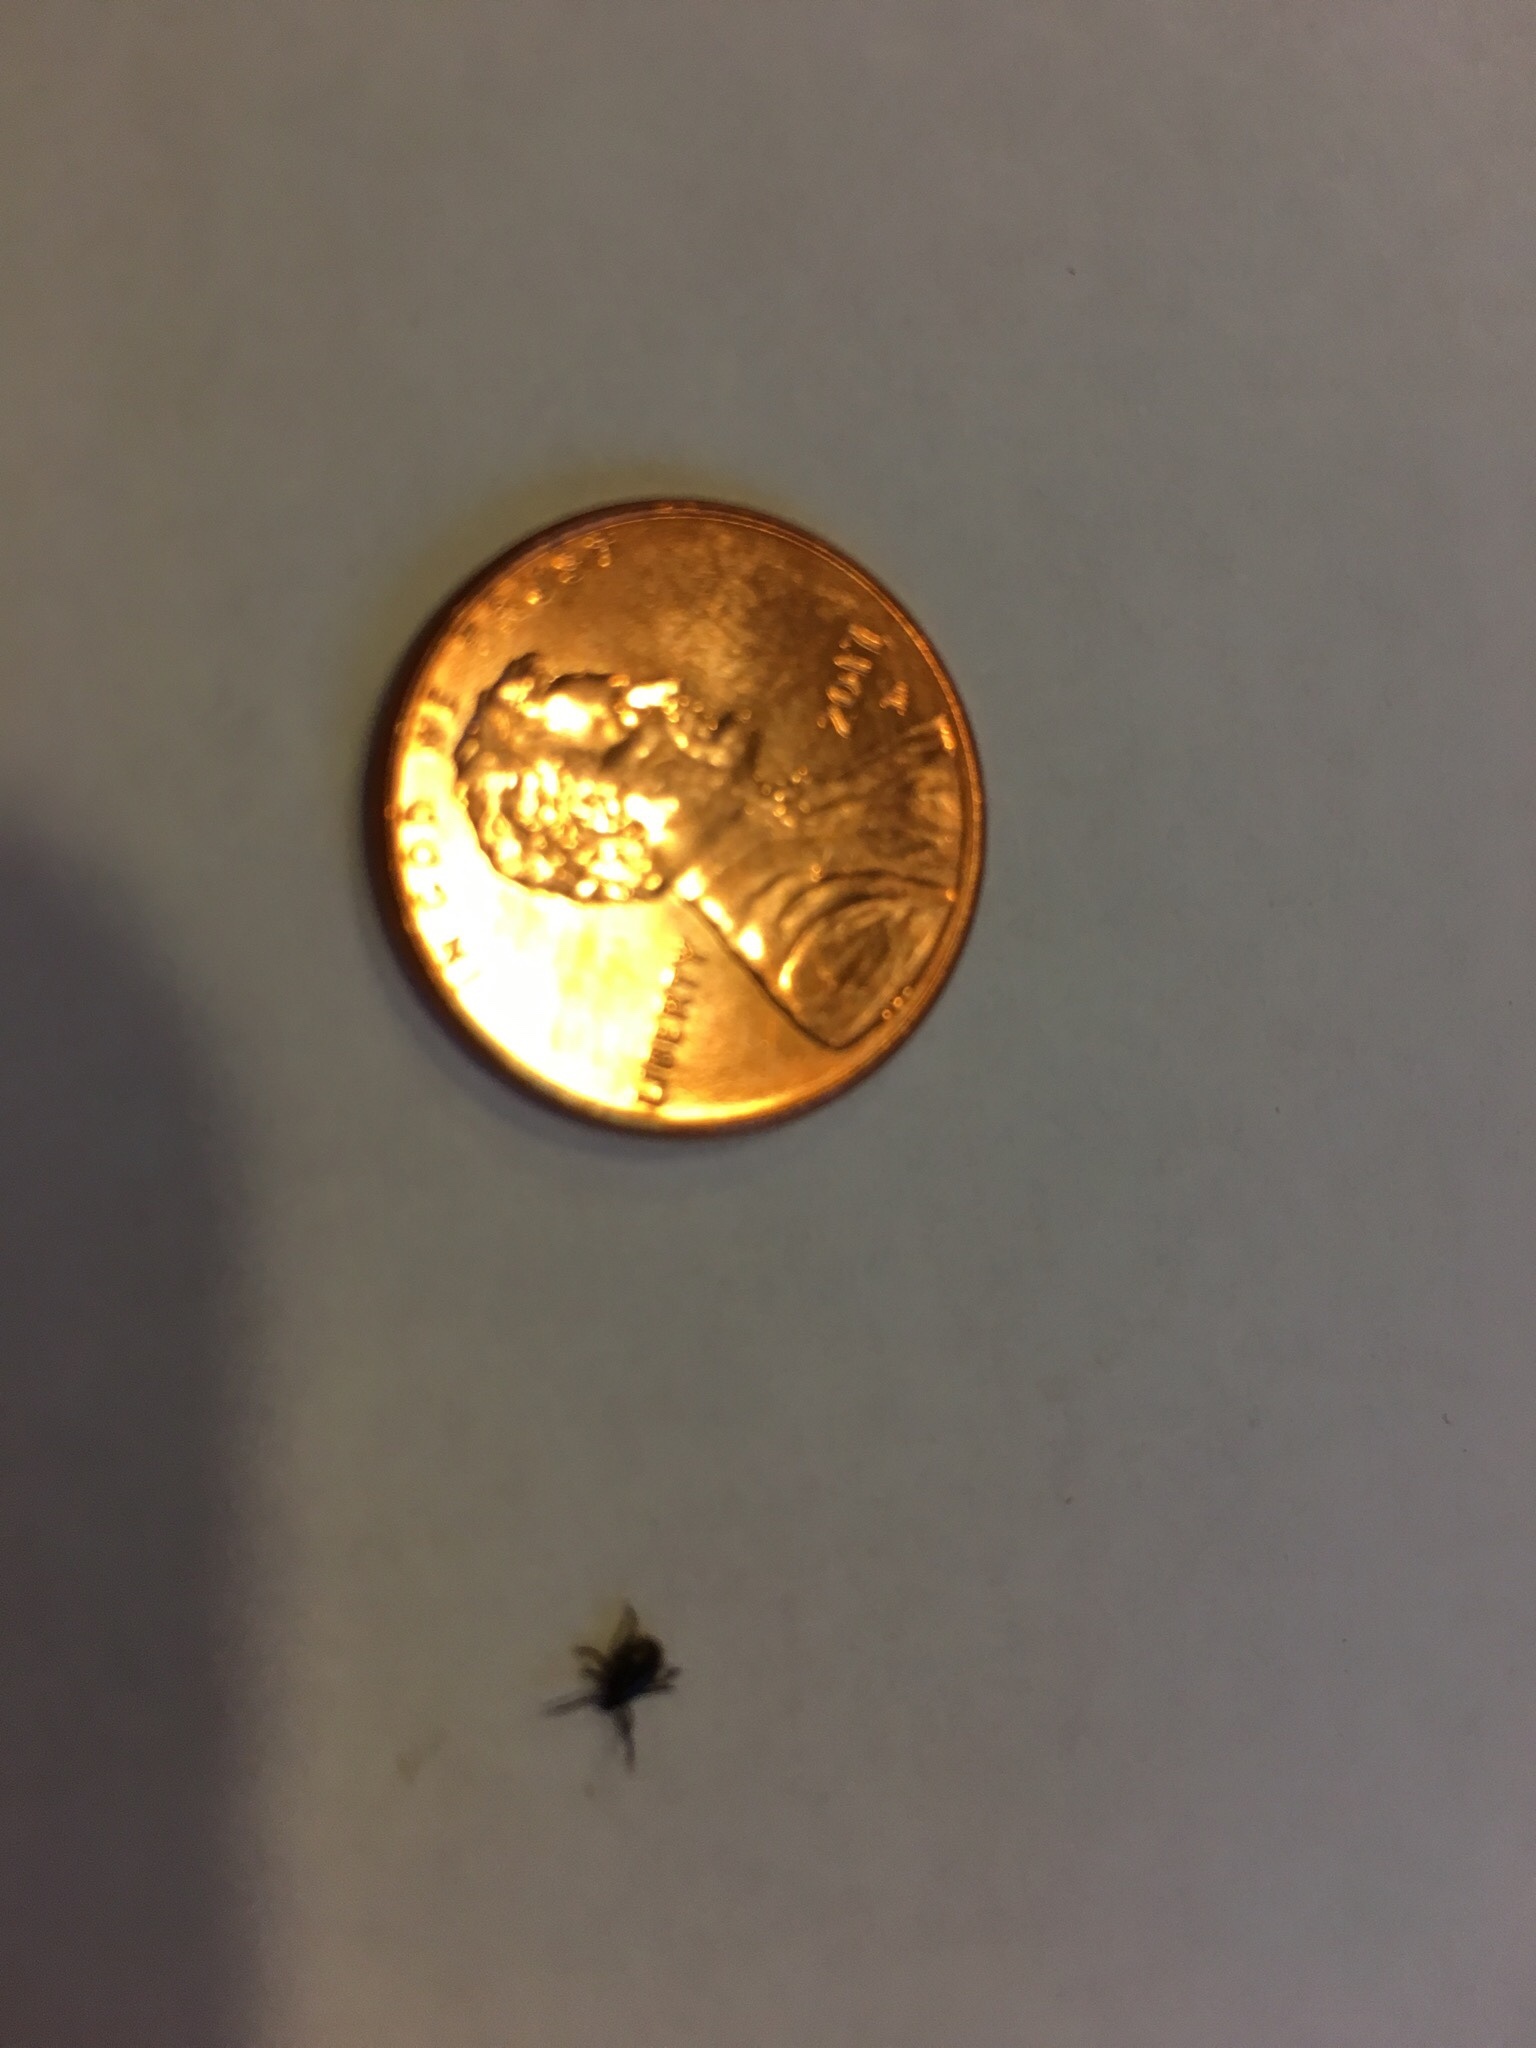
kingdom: Animalia
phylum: Arthropoda
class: Arachnida
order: Ixodida
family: Ixodidae
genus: Ixodes
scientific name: Ixodes scapularis
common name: Black legged tick
